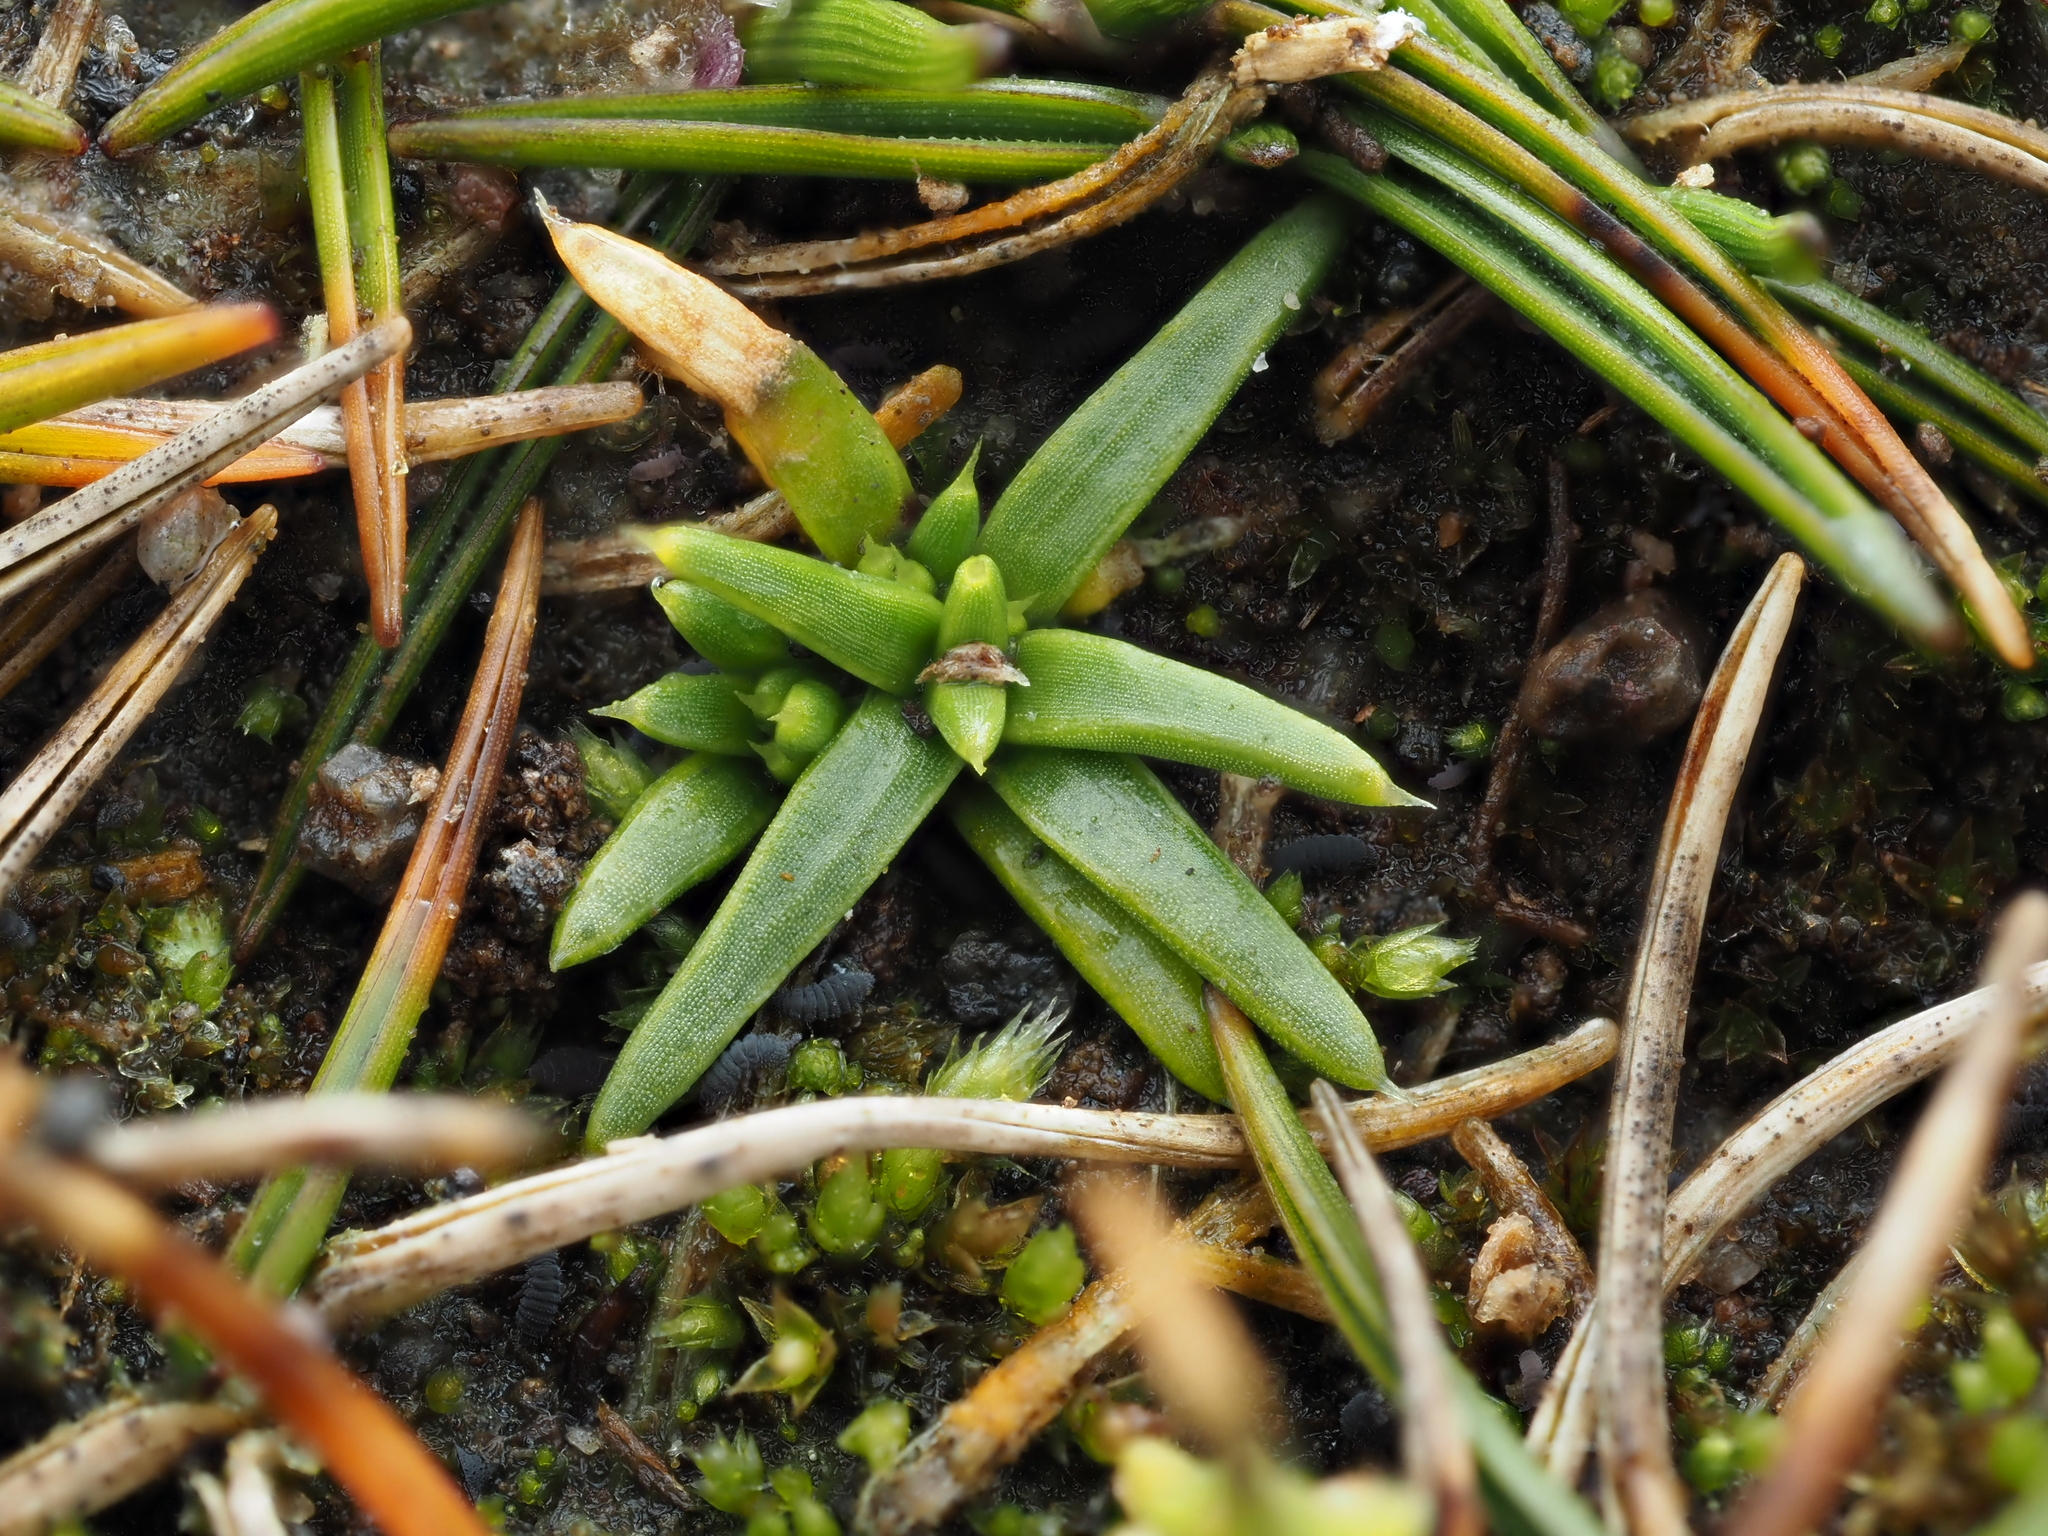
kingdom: Plantae
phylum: Tracheophyta
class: Magnoliopsida
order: Caryophyllales
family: Caryophyllaceae
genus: Colobanthus
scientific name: Colobanthus muelleri
